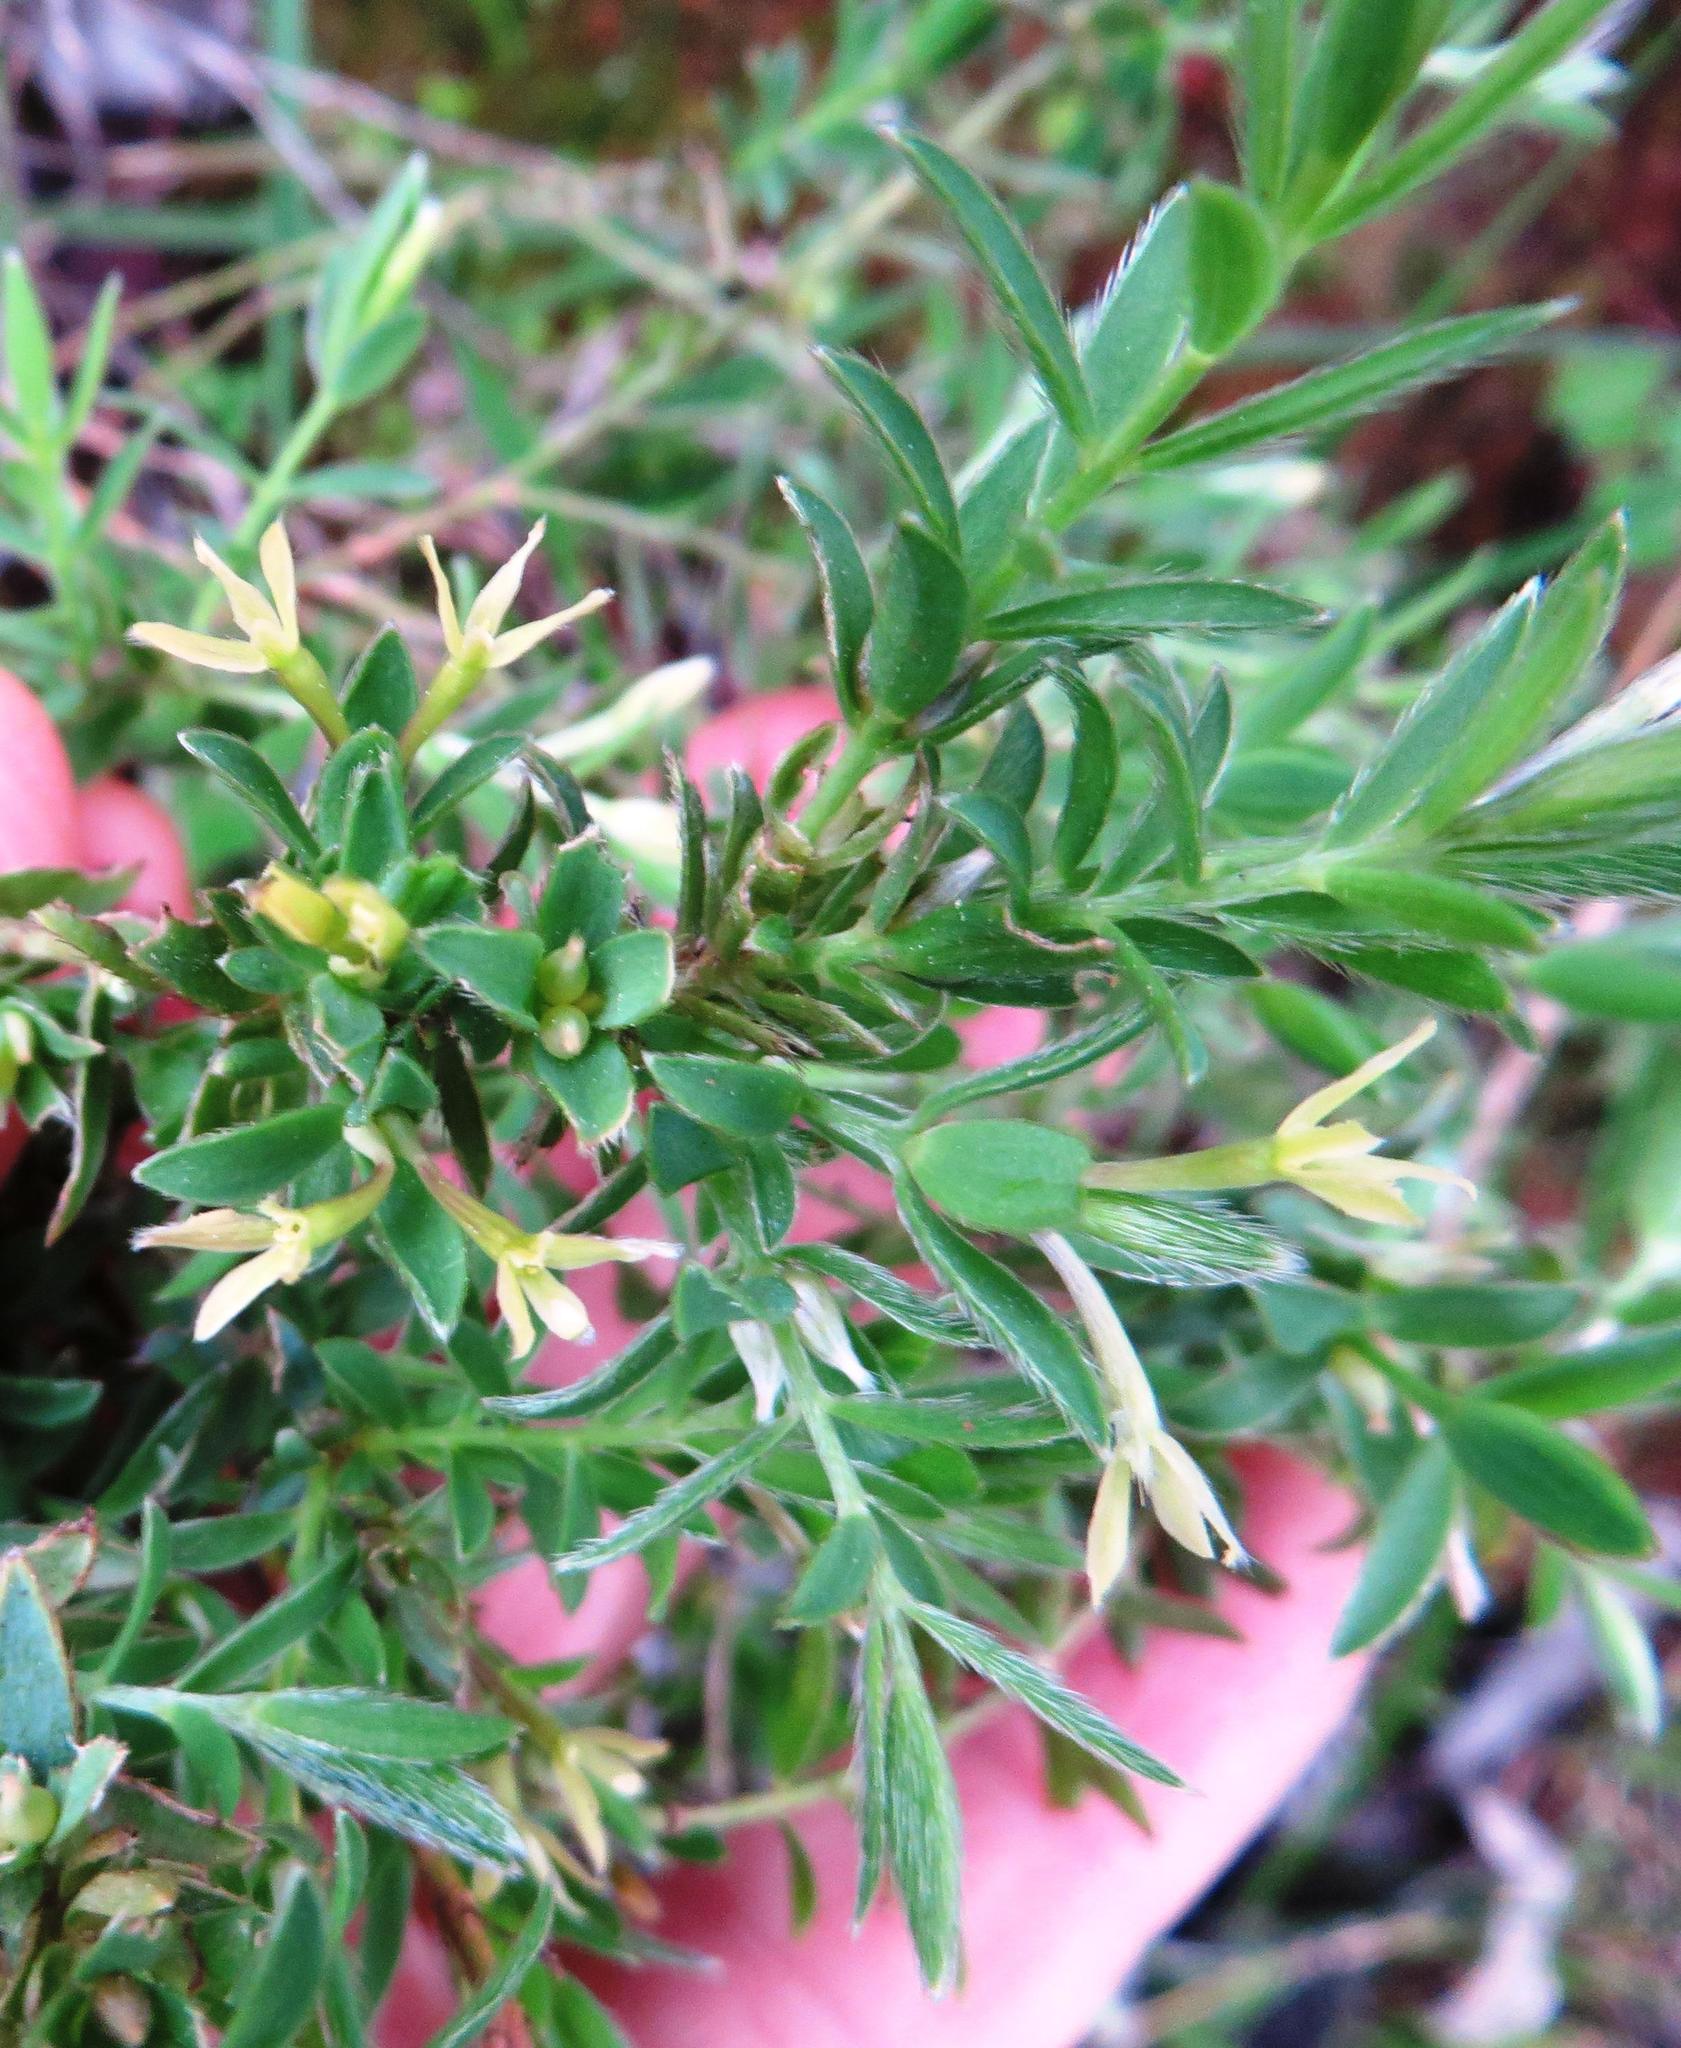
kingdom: Plantae
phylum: Tracheophyta
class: Magnoliopsida
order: Malvales
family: Thymelaeaceae
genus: Gnidia
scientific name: Gnidia inconspicua
